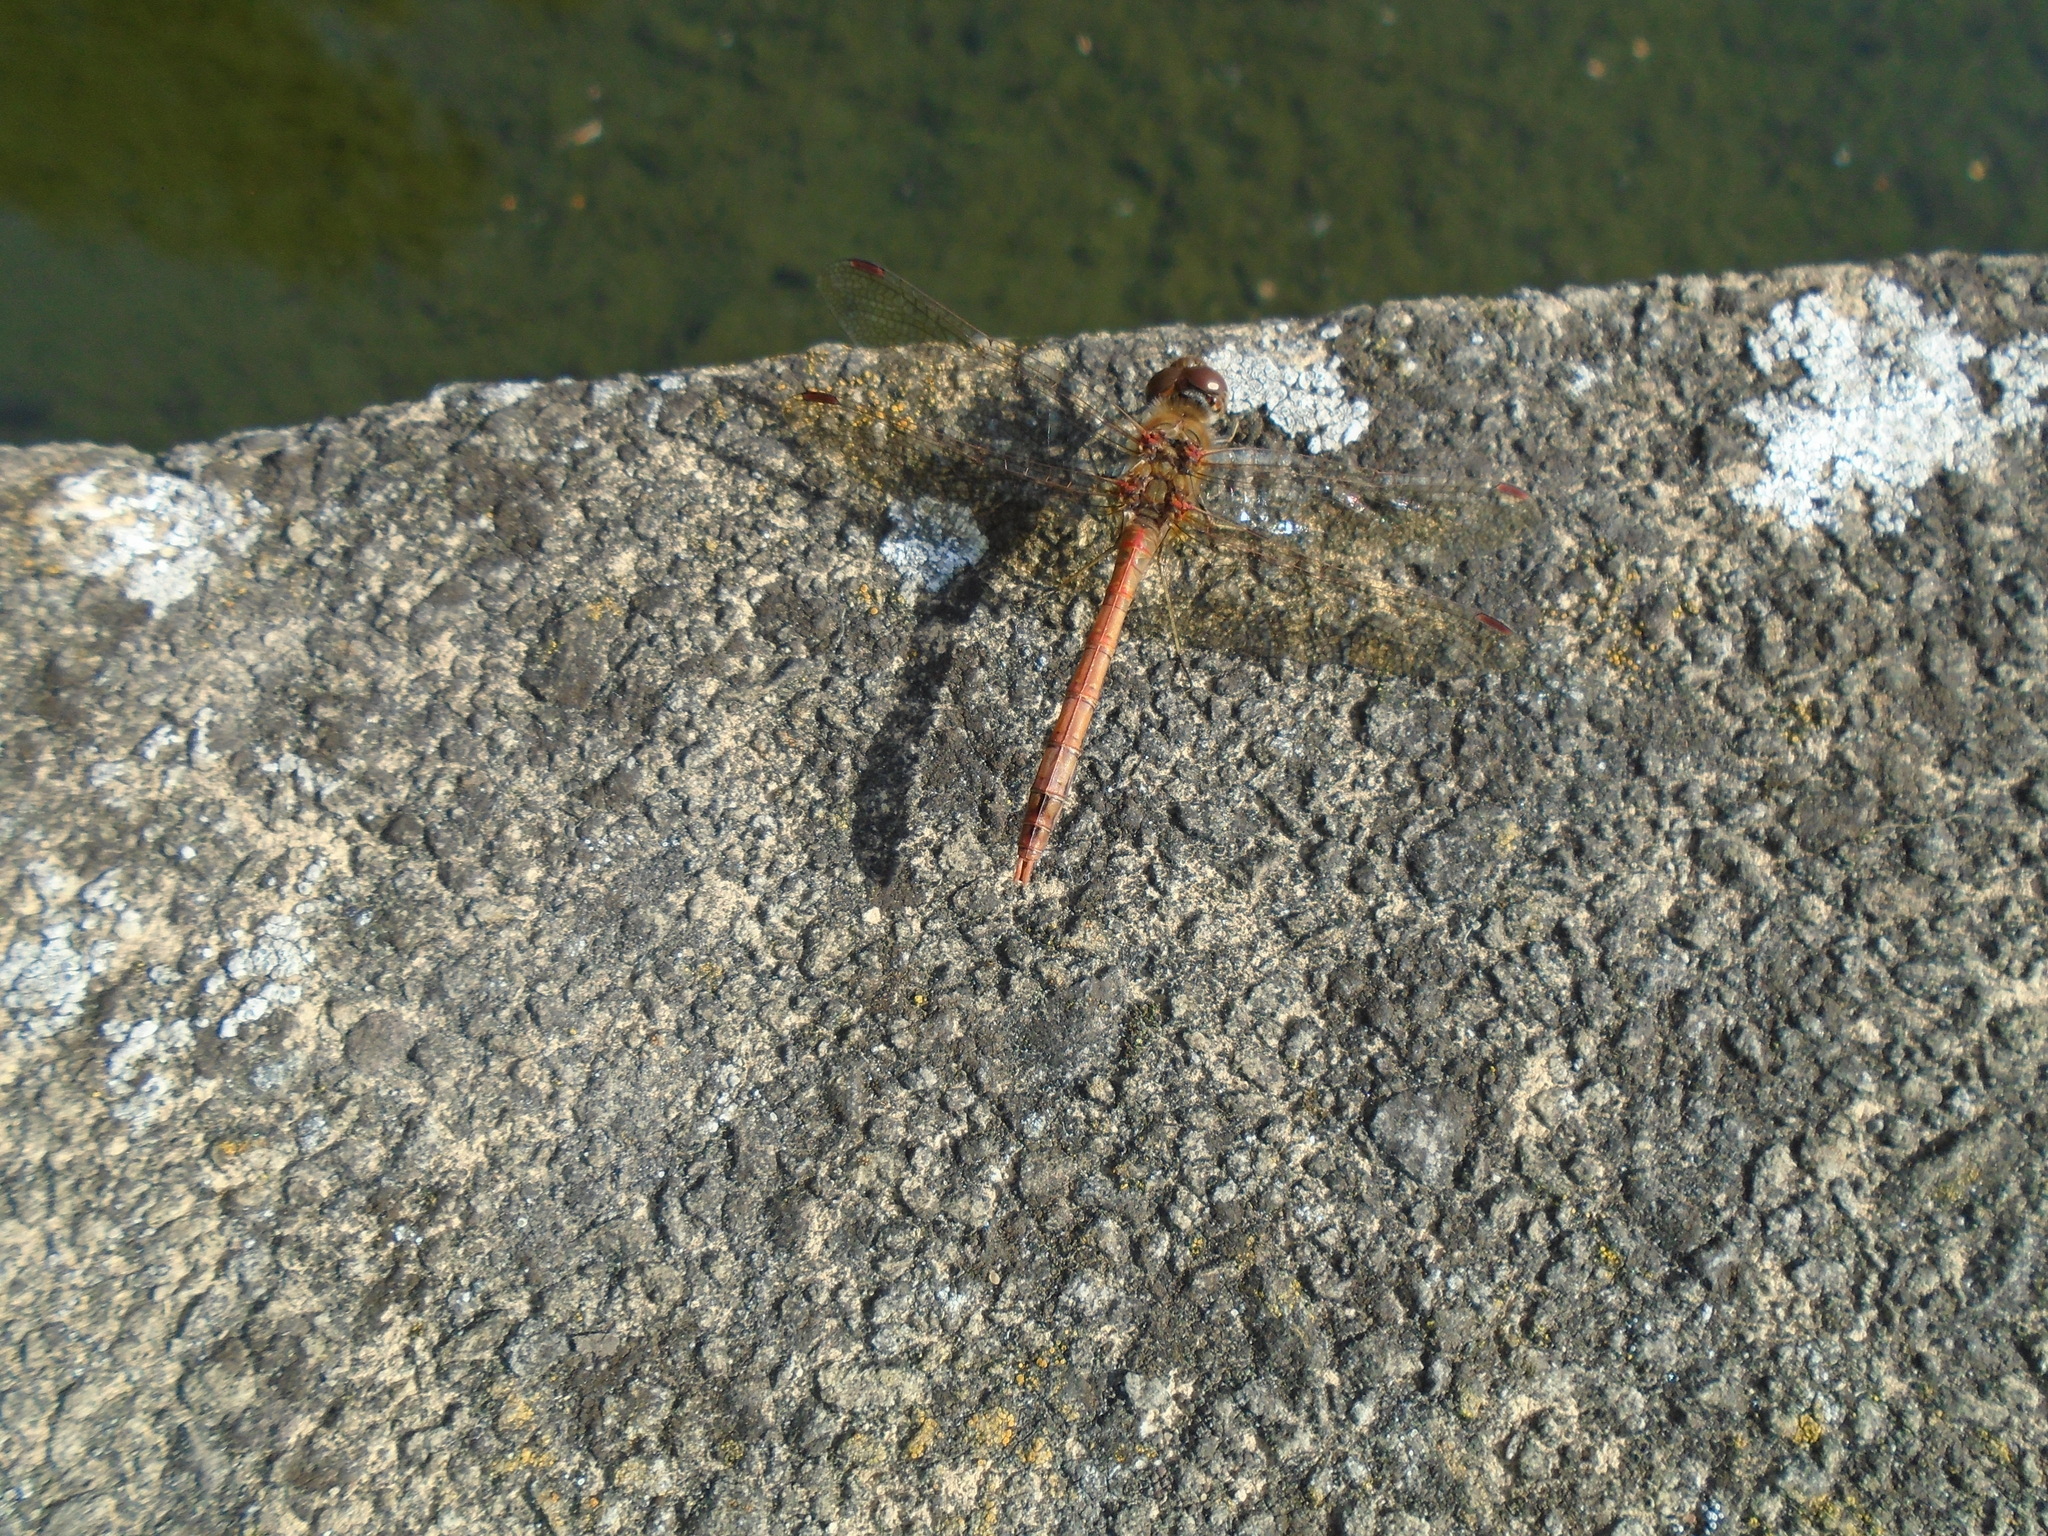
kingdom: Animalia
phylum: Arthropoda
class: Insecta
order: Odonata
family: Libellulidae
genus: Sympetrum
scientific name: Sympetrum striolatum
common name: Common darter
